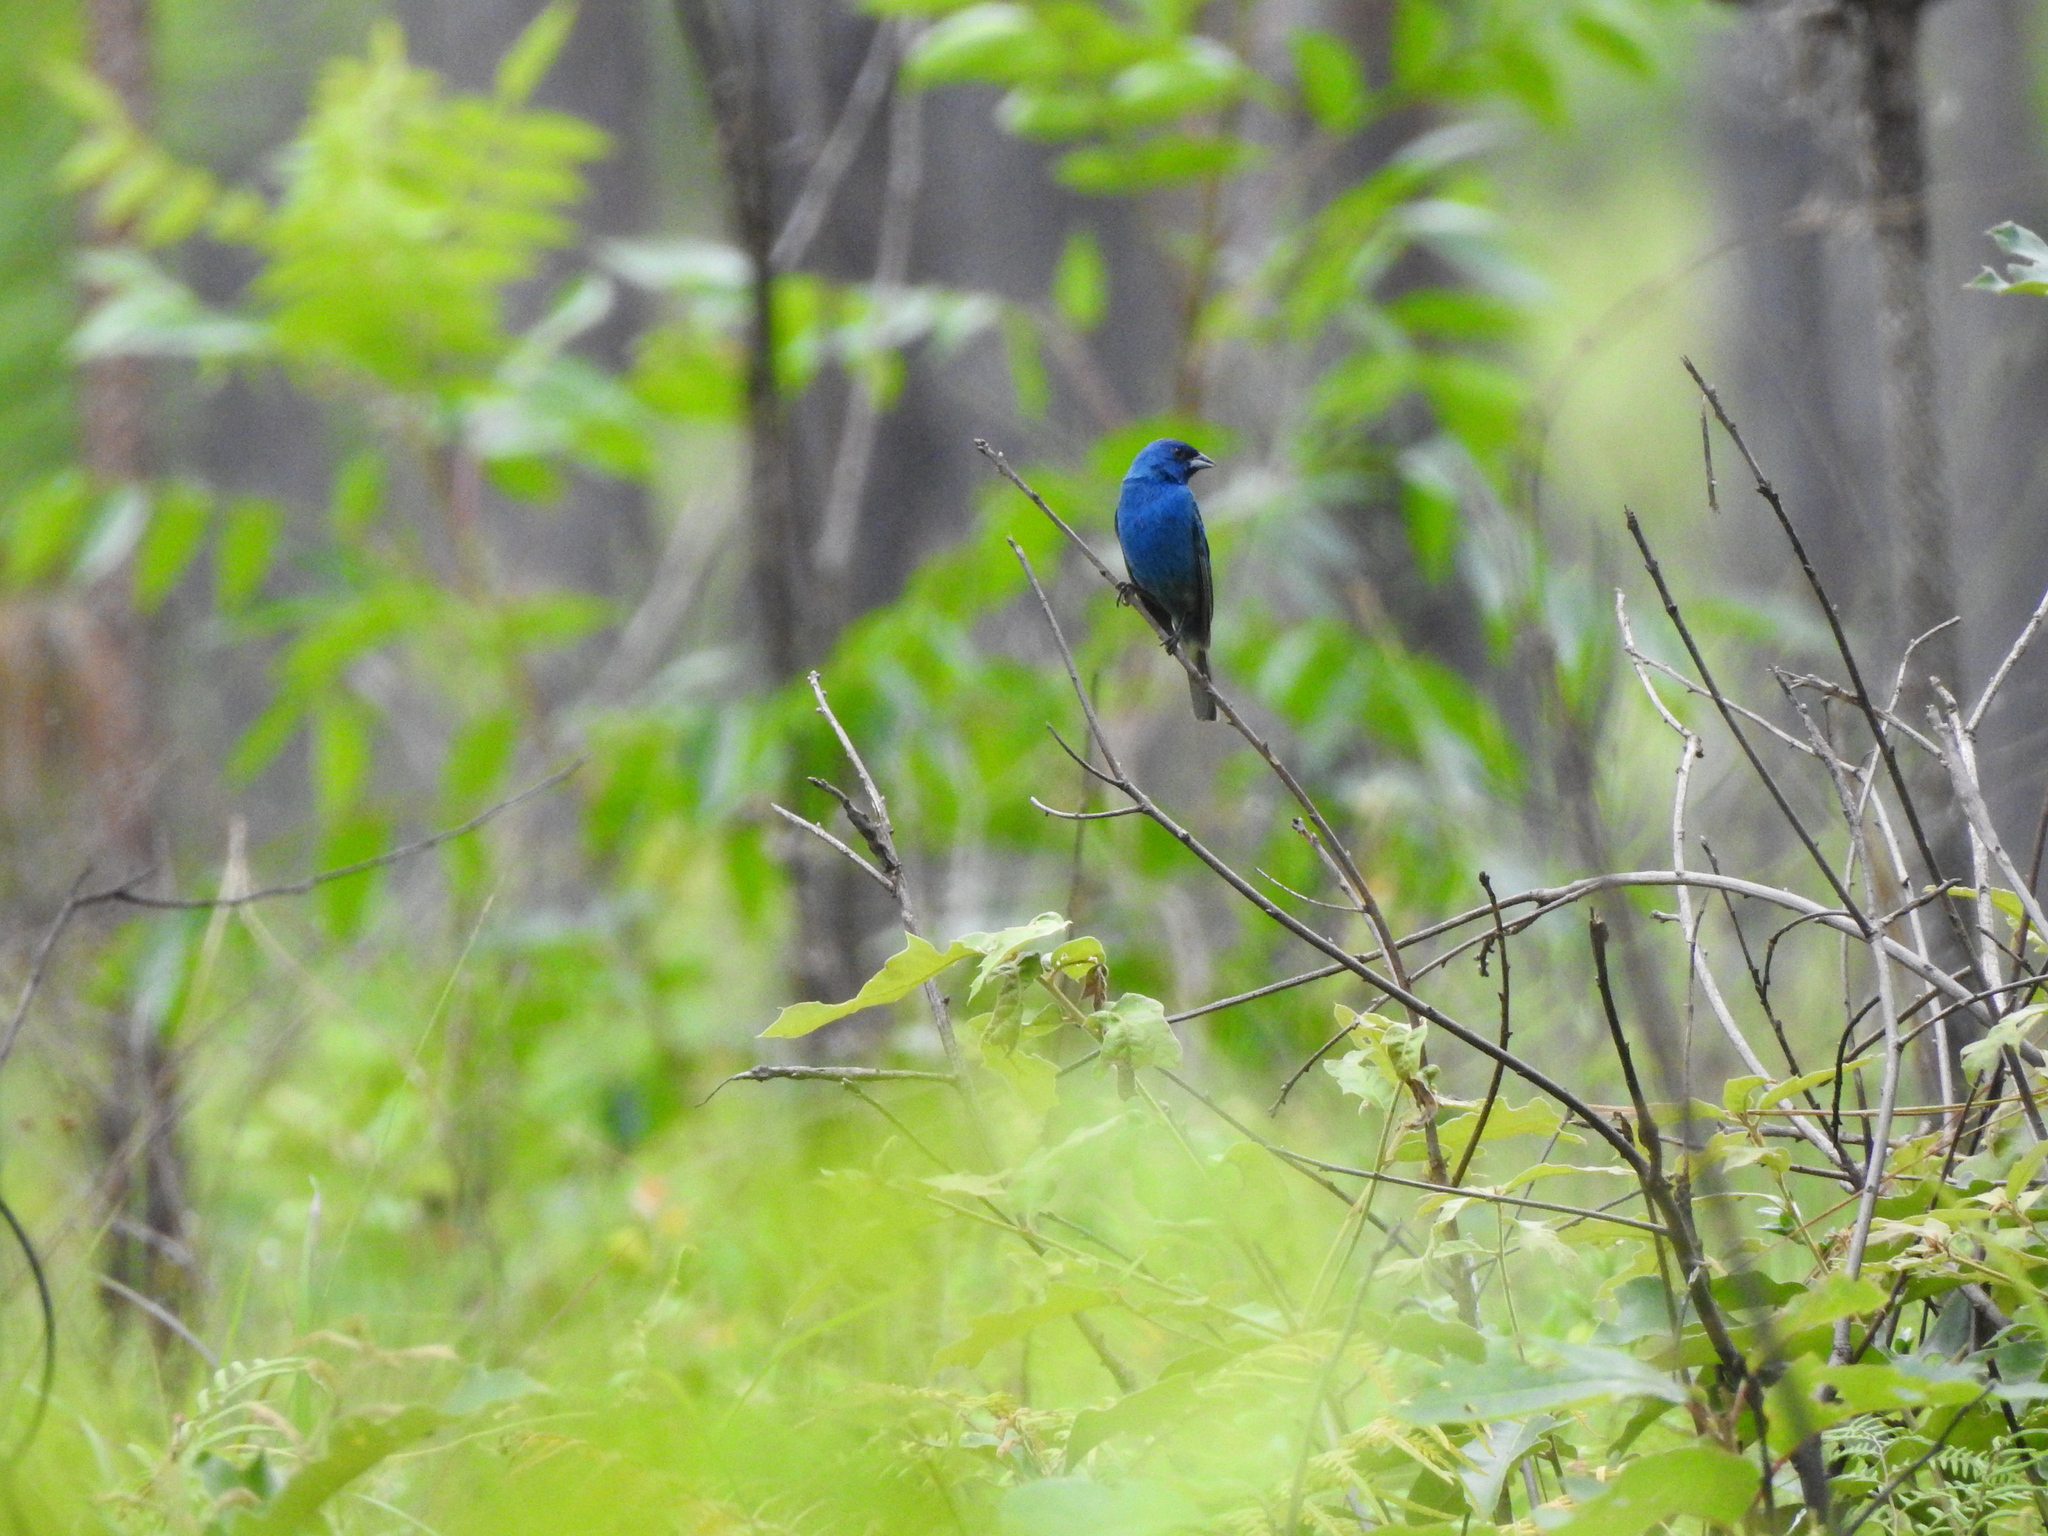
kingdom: Animalia
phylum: Chordata
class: Aves
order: Passeriformes
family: Cardinalidae
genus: Passerina
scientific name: Passerina cyanea
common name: Indigo bunting
